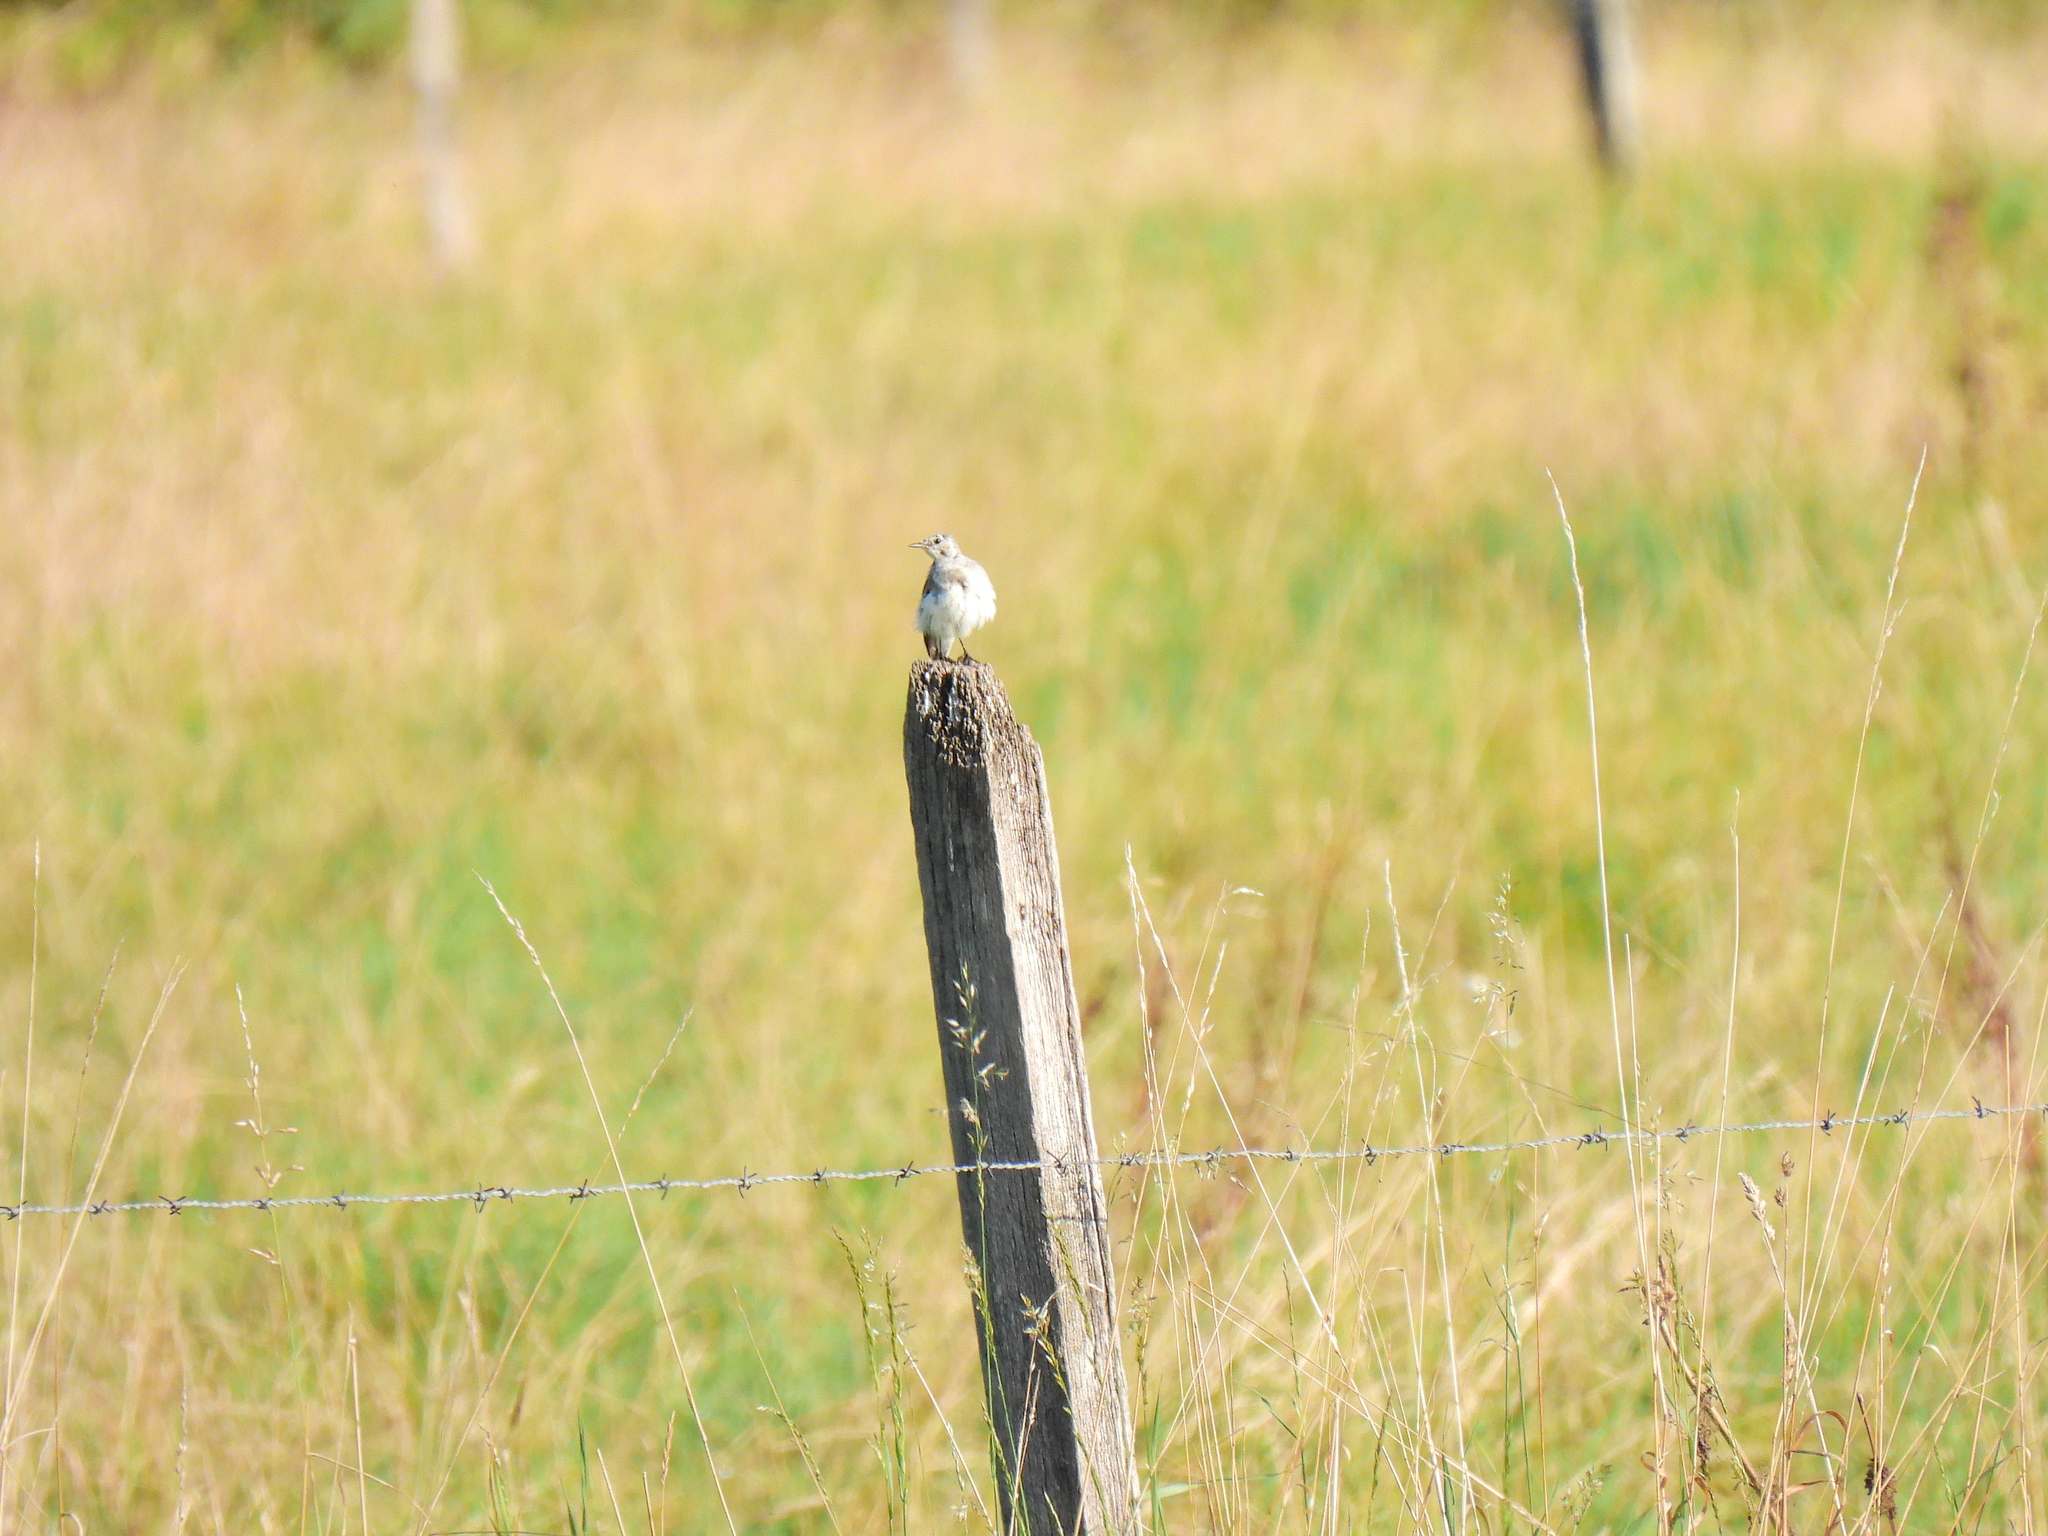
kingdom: Animalia
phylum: Chordata
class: Aves
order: Passeriformes
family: Motacillidae
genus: Motacilla
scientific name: Motacilla alba
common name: White wagtail
